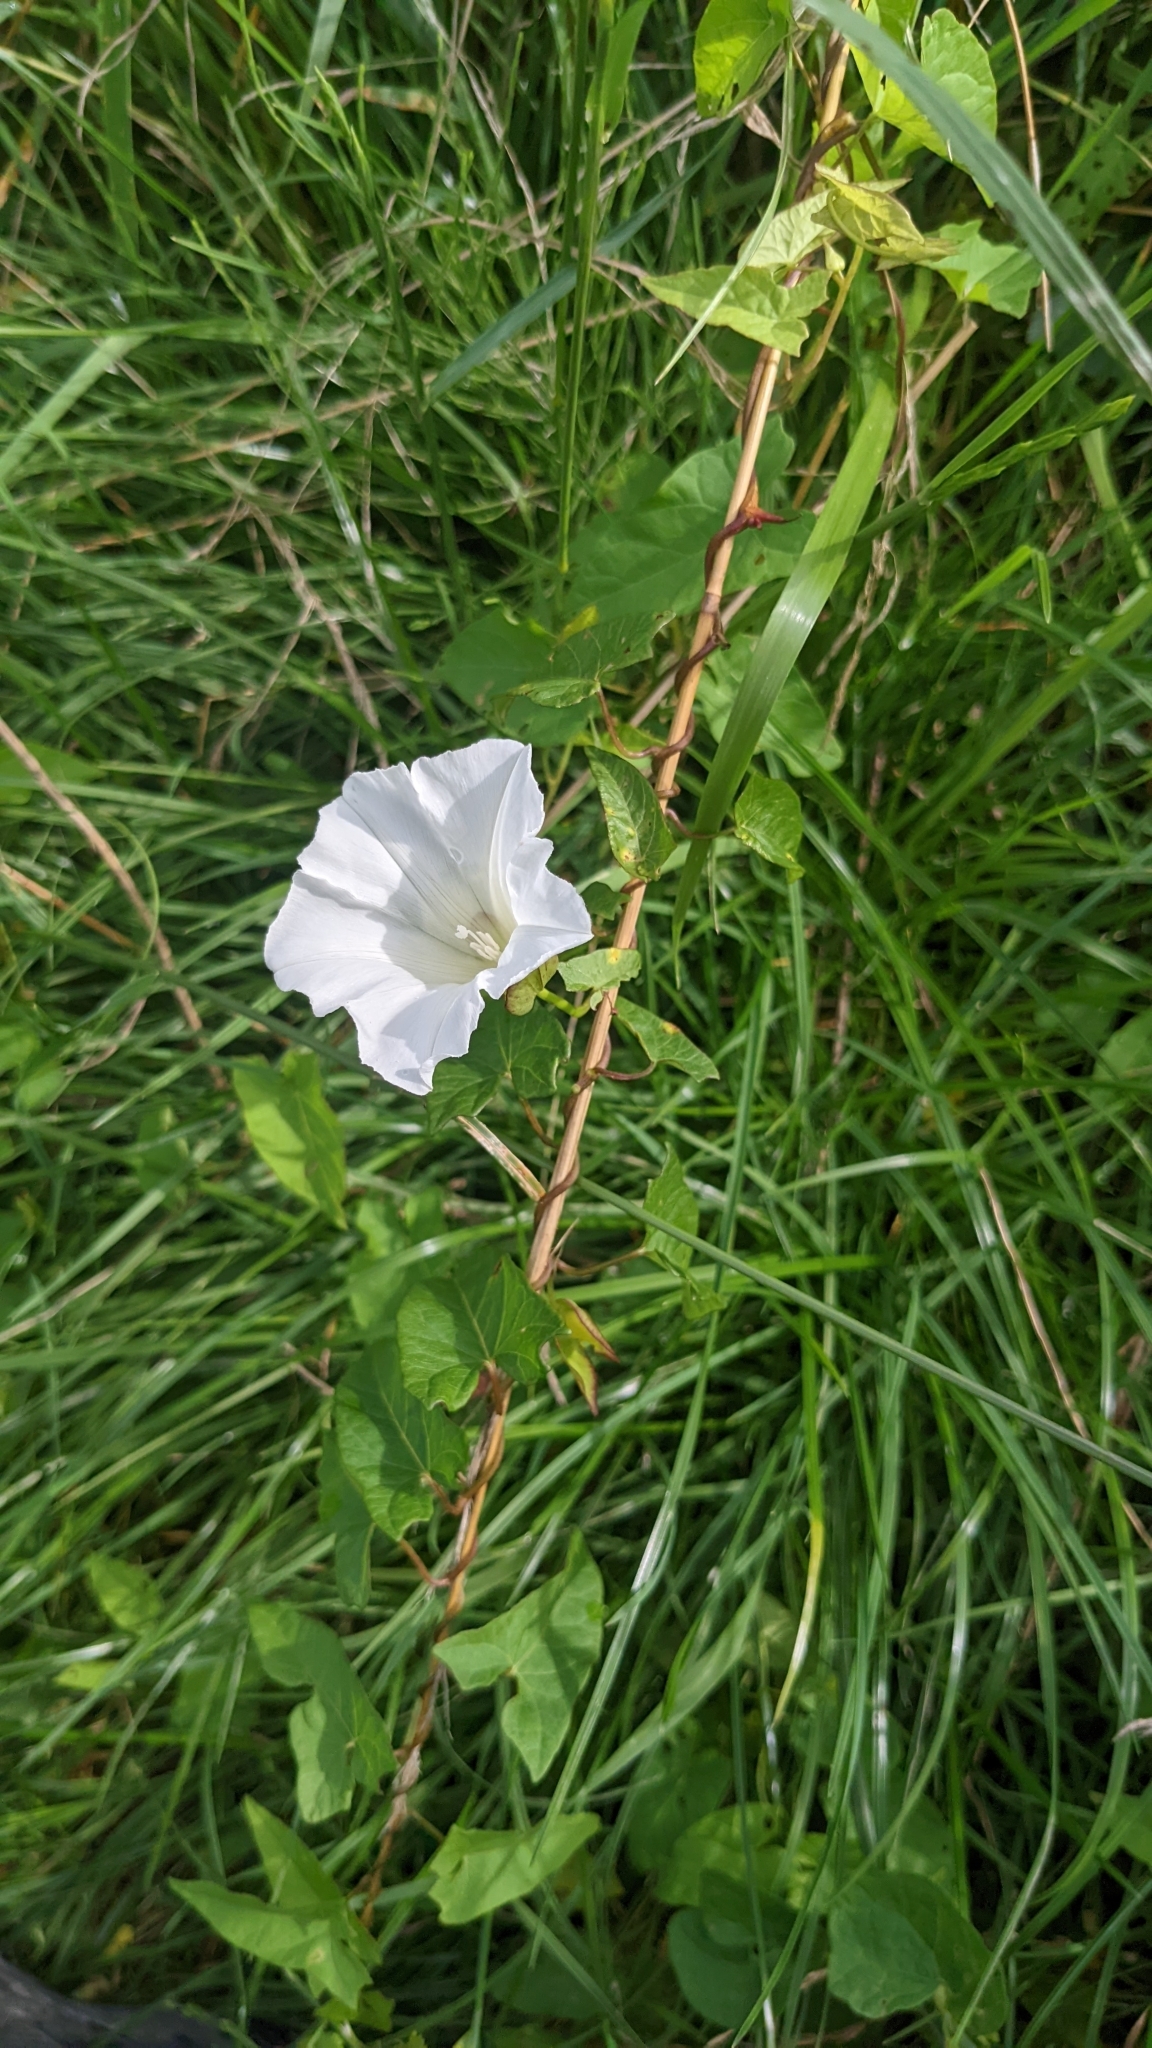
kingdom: Plantae
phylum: Tracheophyta
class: Magnoliopsida
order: Solanales
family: Convolvulaceae
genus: Calystegia
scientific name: Calystegia sepium
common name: Hedge bindweed
